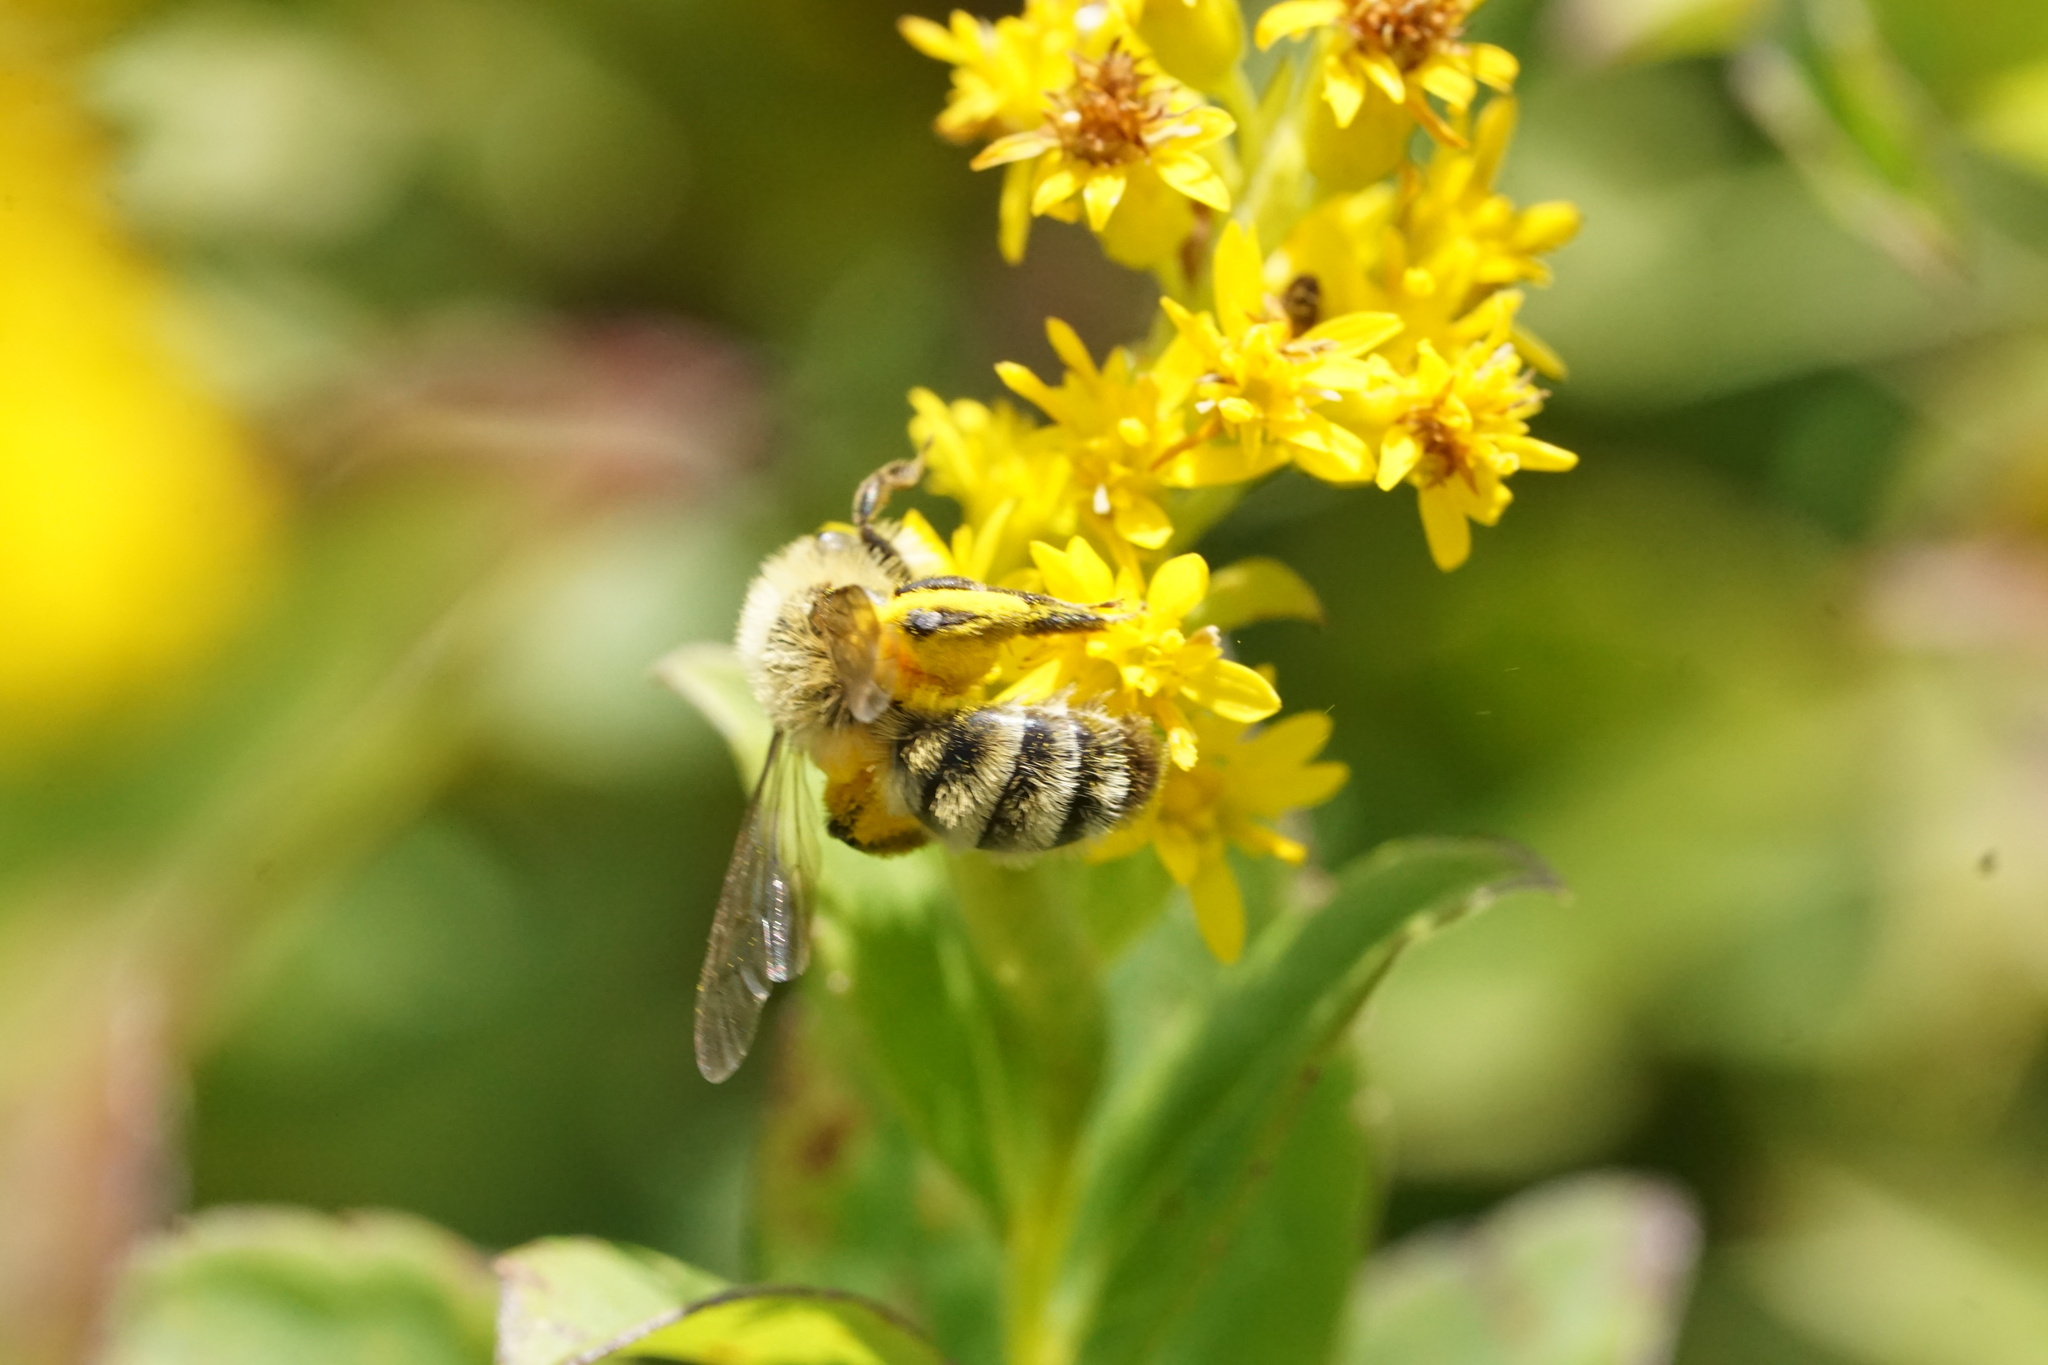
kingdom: Animalia
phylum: Arthropoda
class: Insecta
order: Hymenoptera
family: Andrenidae
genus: Andrena
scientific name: Andrena hirticincta
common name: Hairy-banded mining bee
